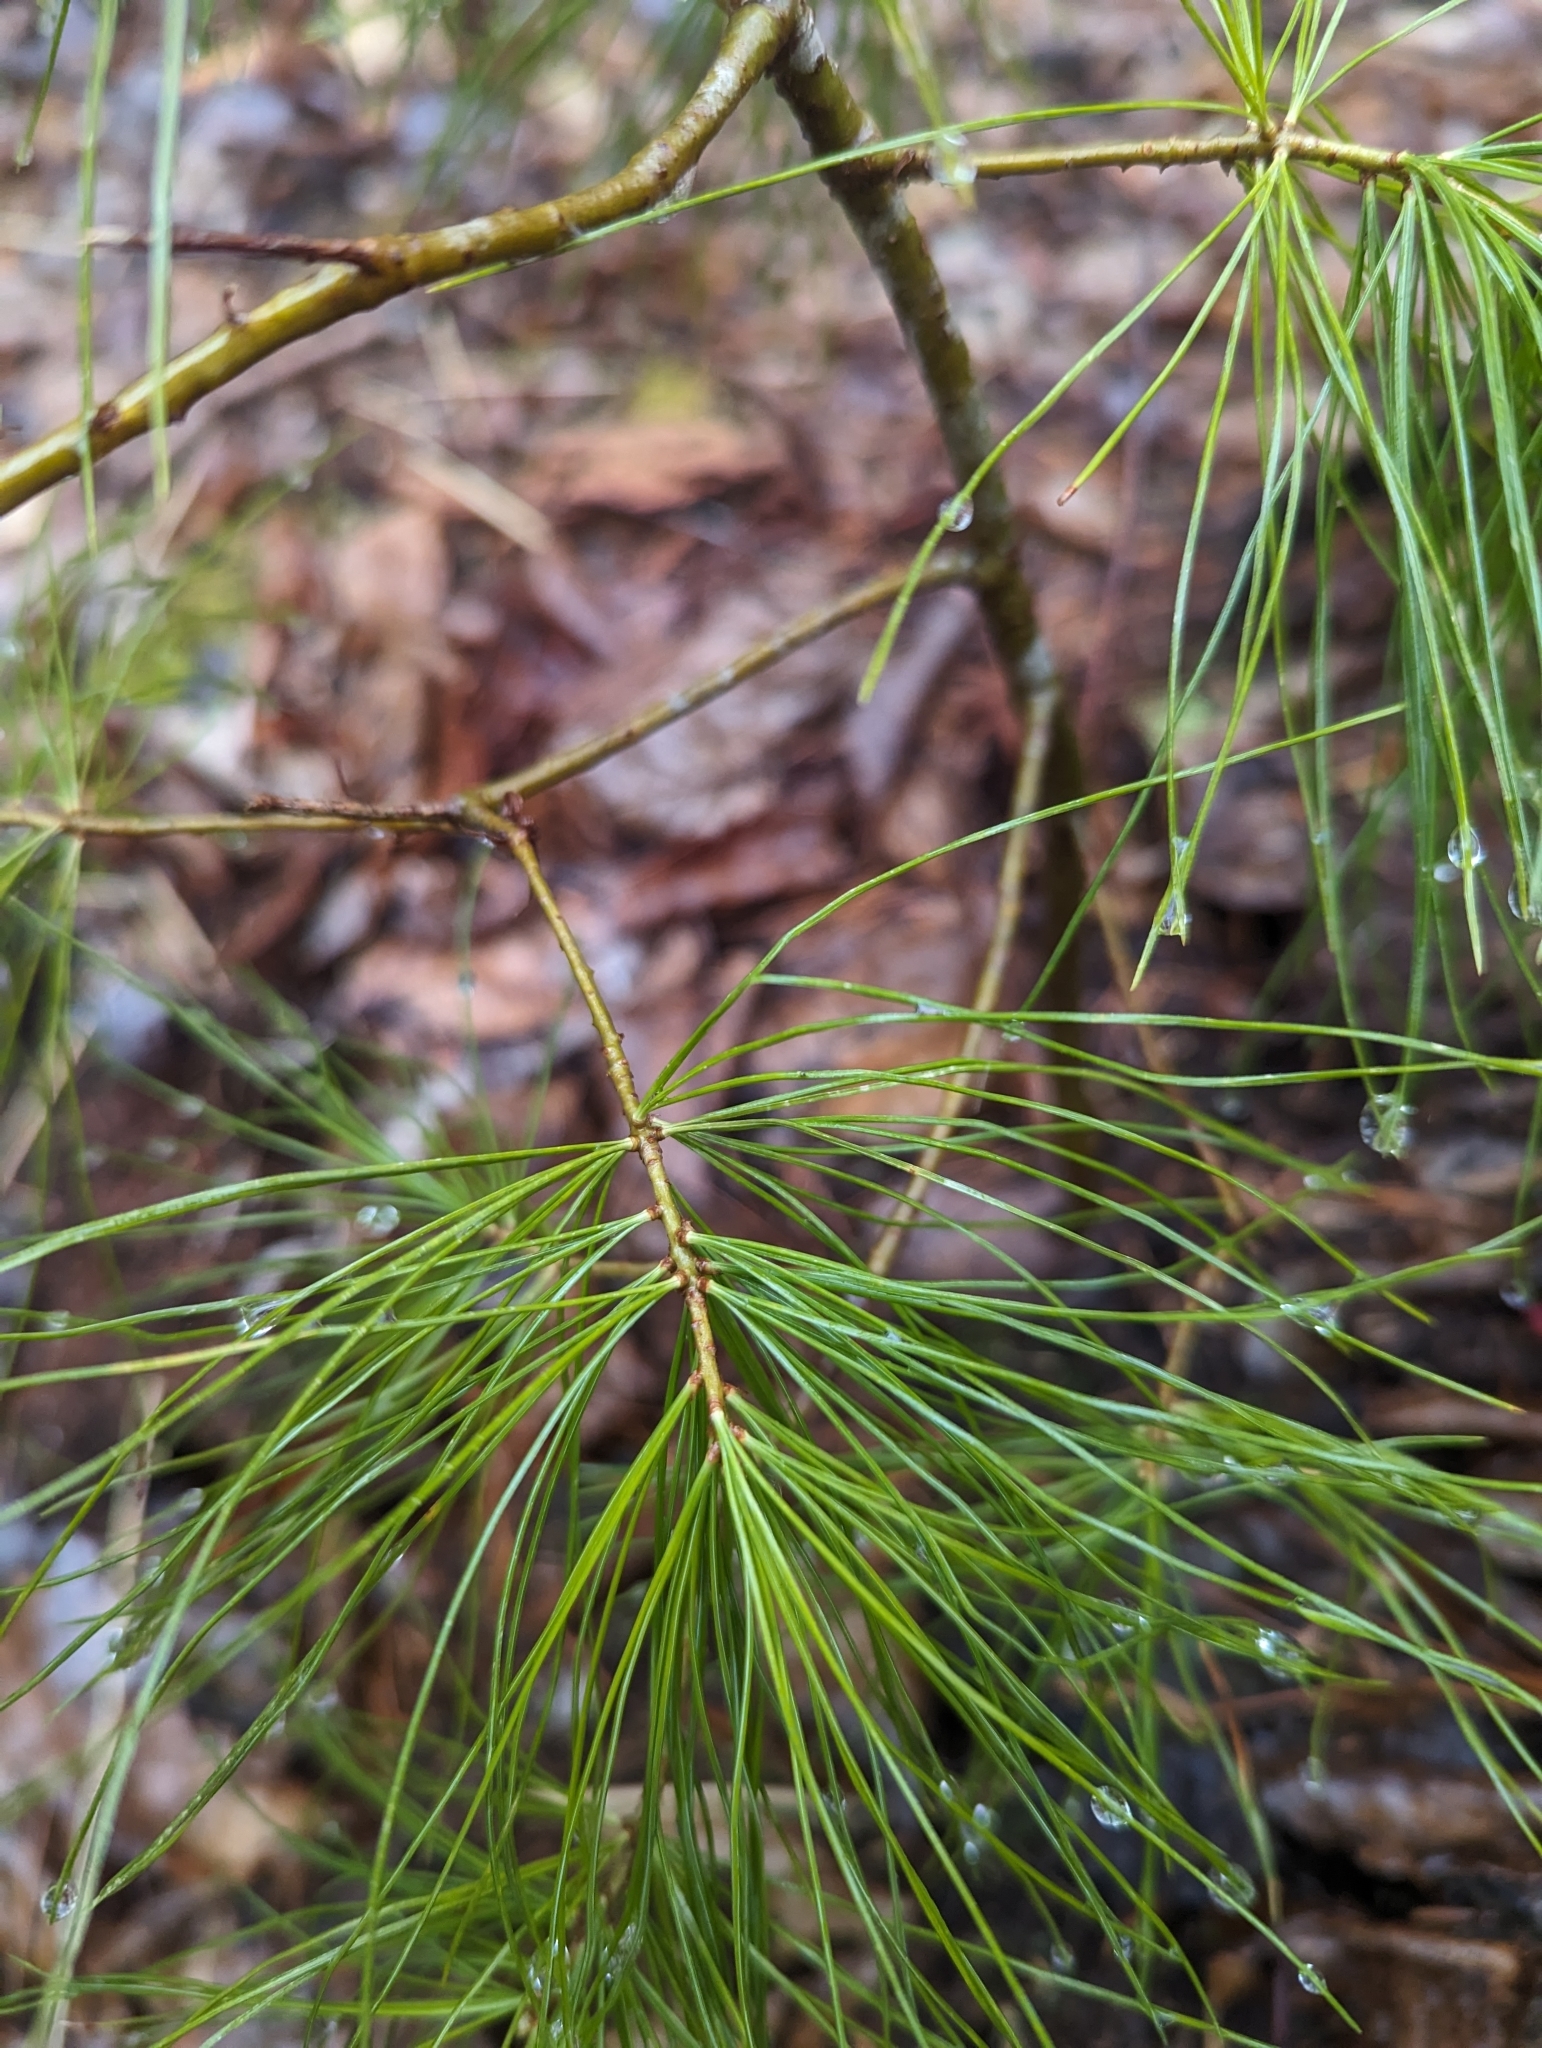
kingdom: Plantae
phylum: Tracheophyta
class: Pinopsida
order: Pinales
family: Pinaceae
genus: Pinus
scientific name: Pinus strobus
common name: Weymouth pine
